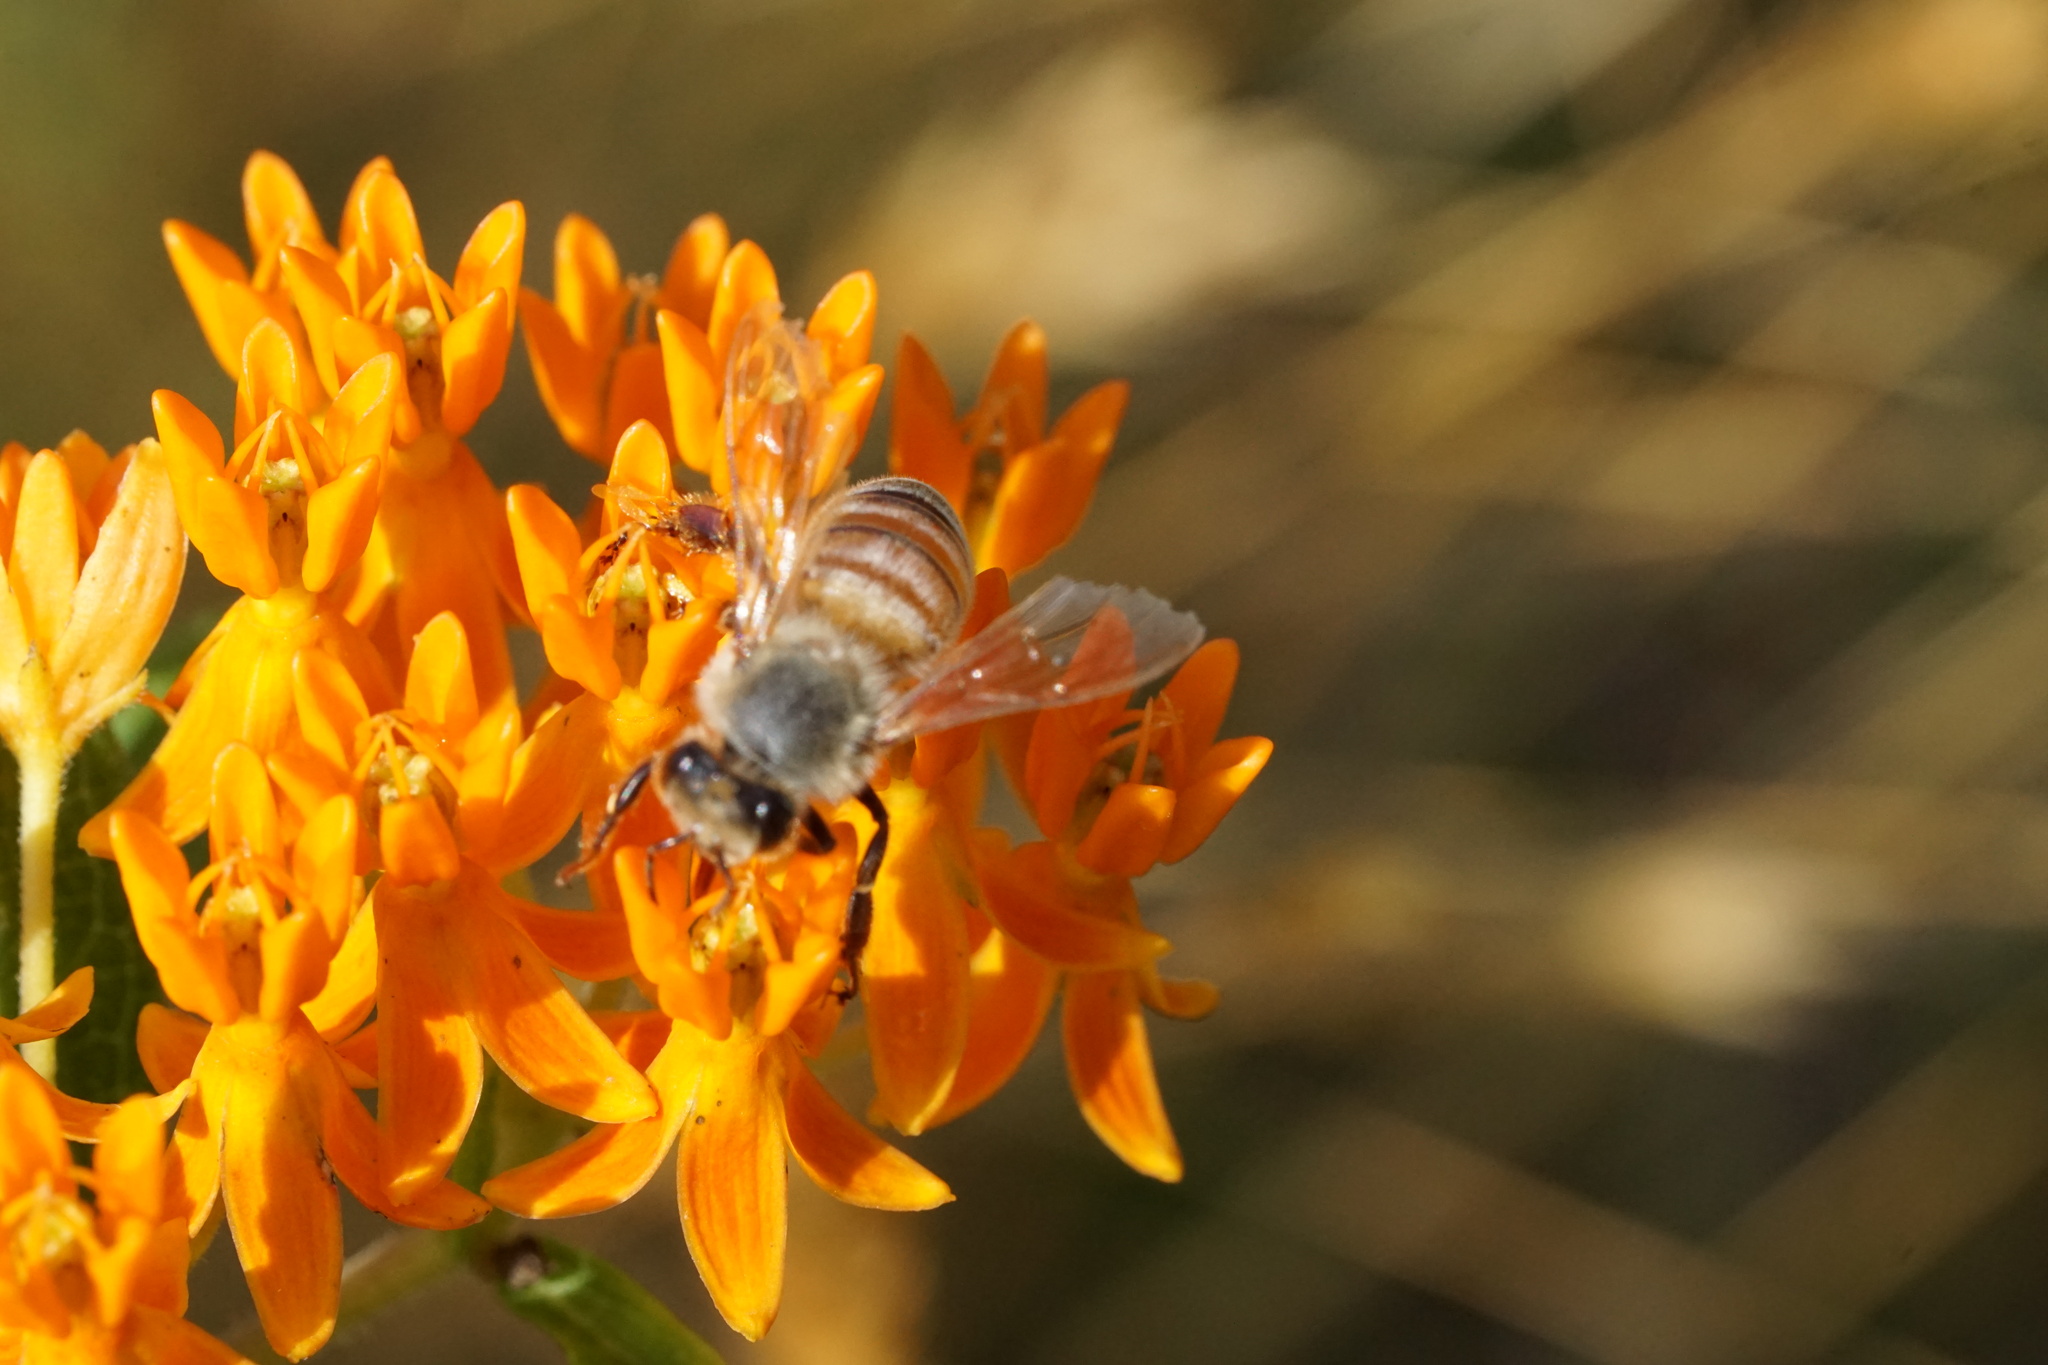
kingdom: Animalia
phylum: Arthropoda
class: Insecta
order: Hymenoptera
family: Apidae
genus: Apis
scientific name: Apis mellifera
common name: Honey bee
